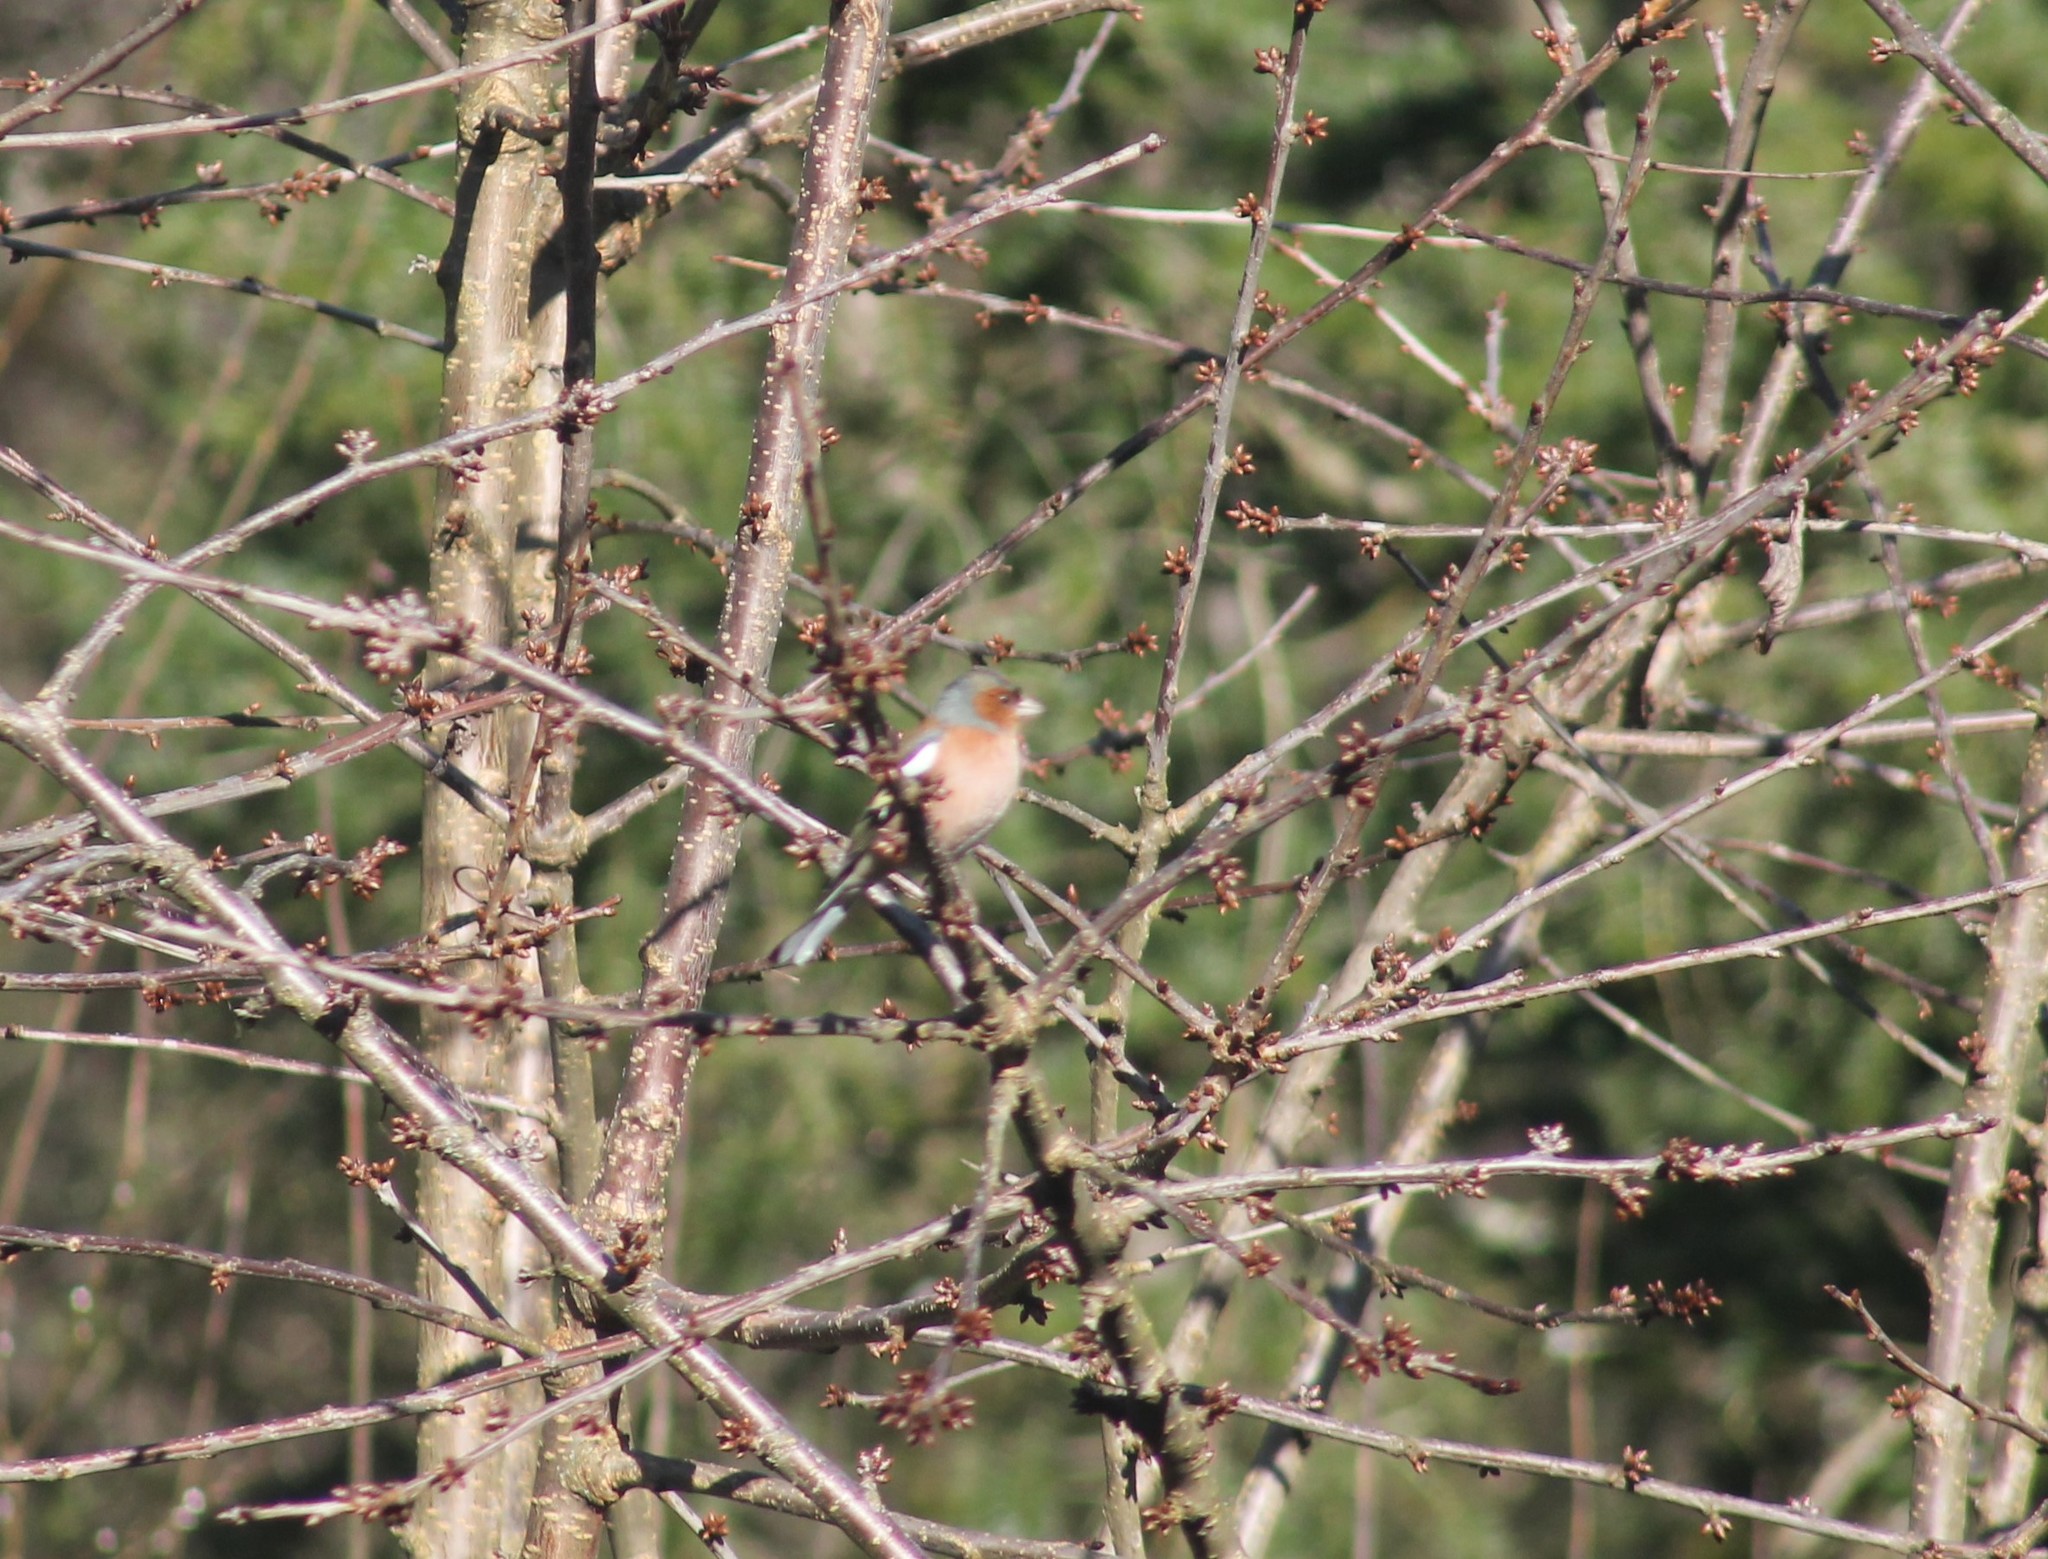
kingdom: Animalia
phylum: Chordata
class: Aves
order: Passeriformes
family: Fringillidae
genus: Fringilla
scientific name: Fringilla coelebs
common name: Common chaffinch
